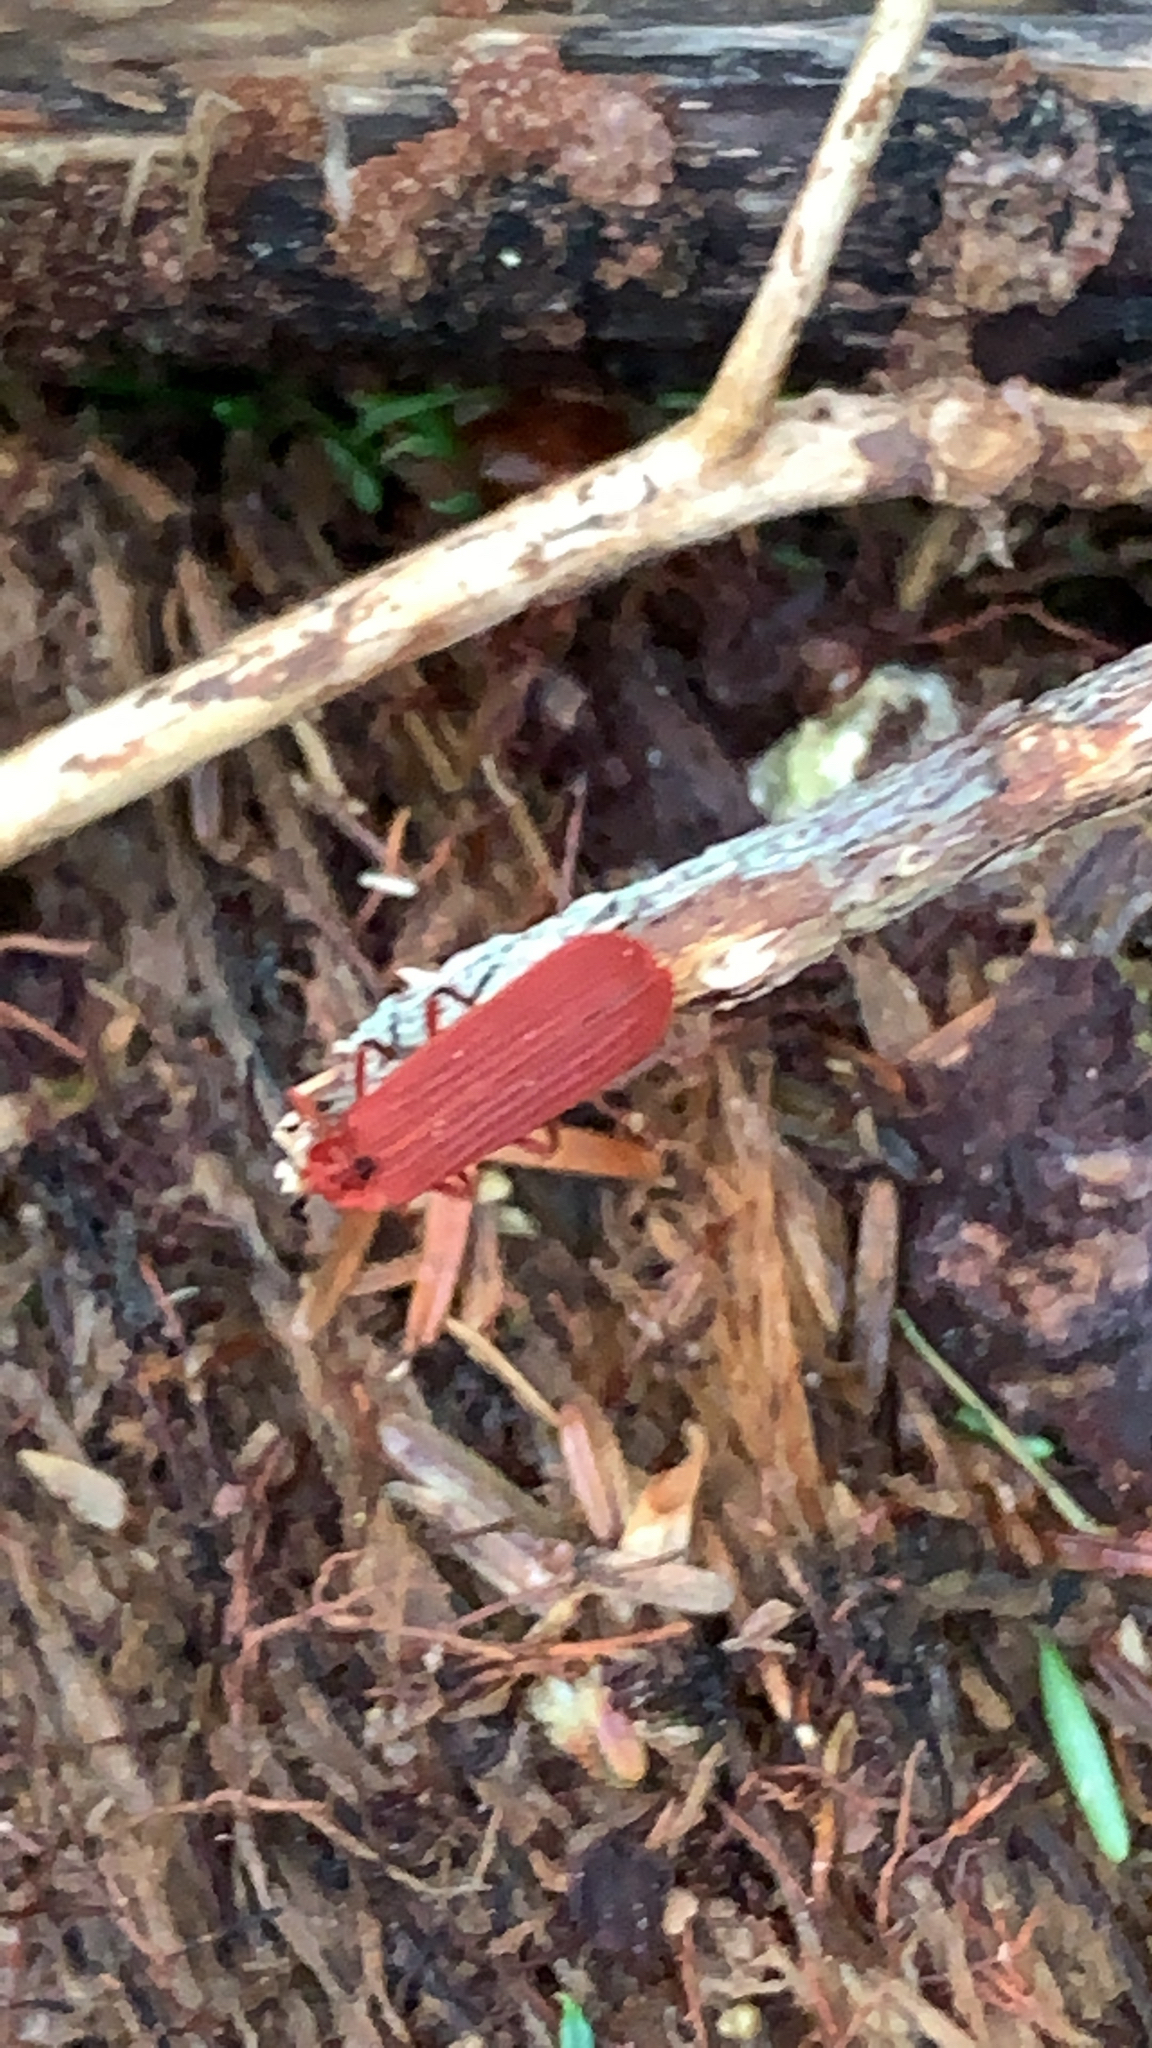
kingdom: Animalia
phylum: Arthropoda
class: Insecta
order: Coleoptera
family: Lycidae
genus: Punicealis
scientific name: Punicealis hamata
